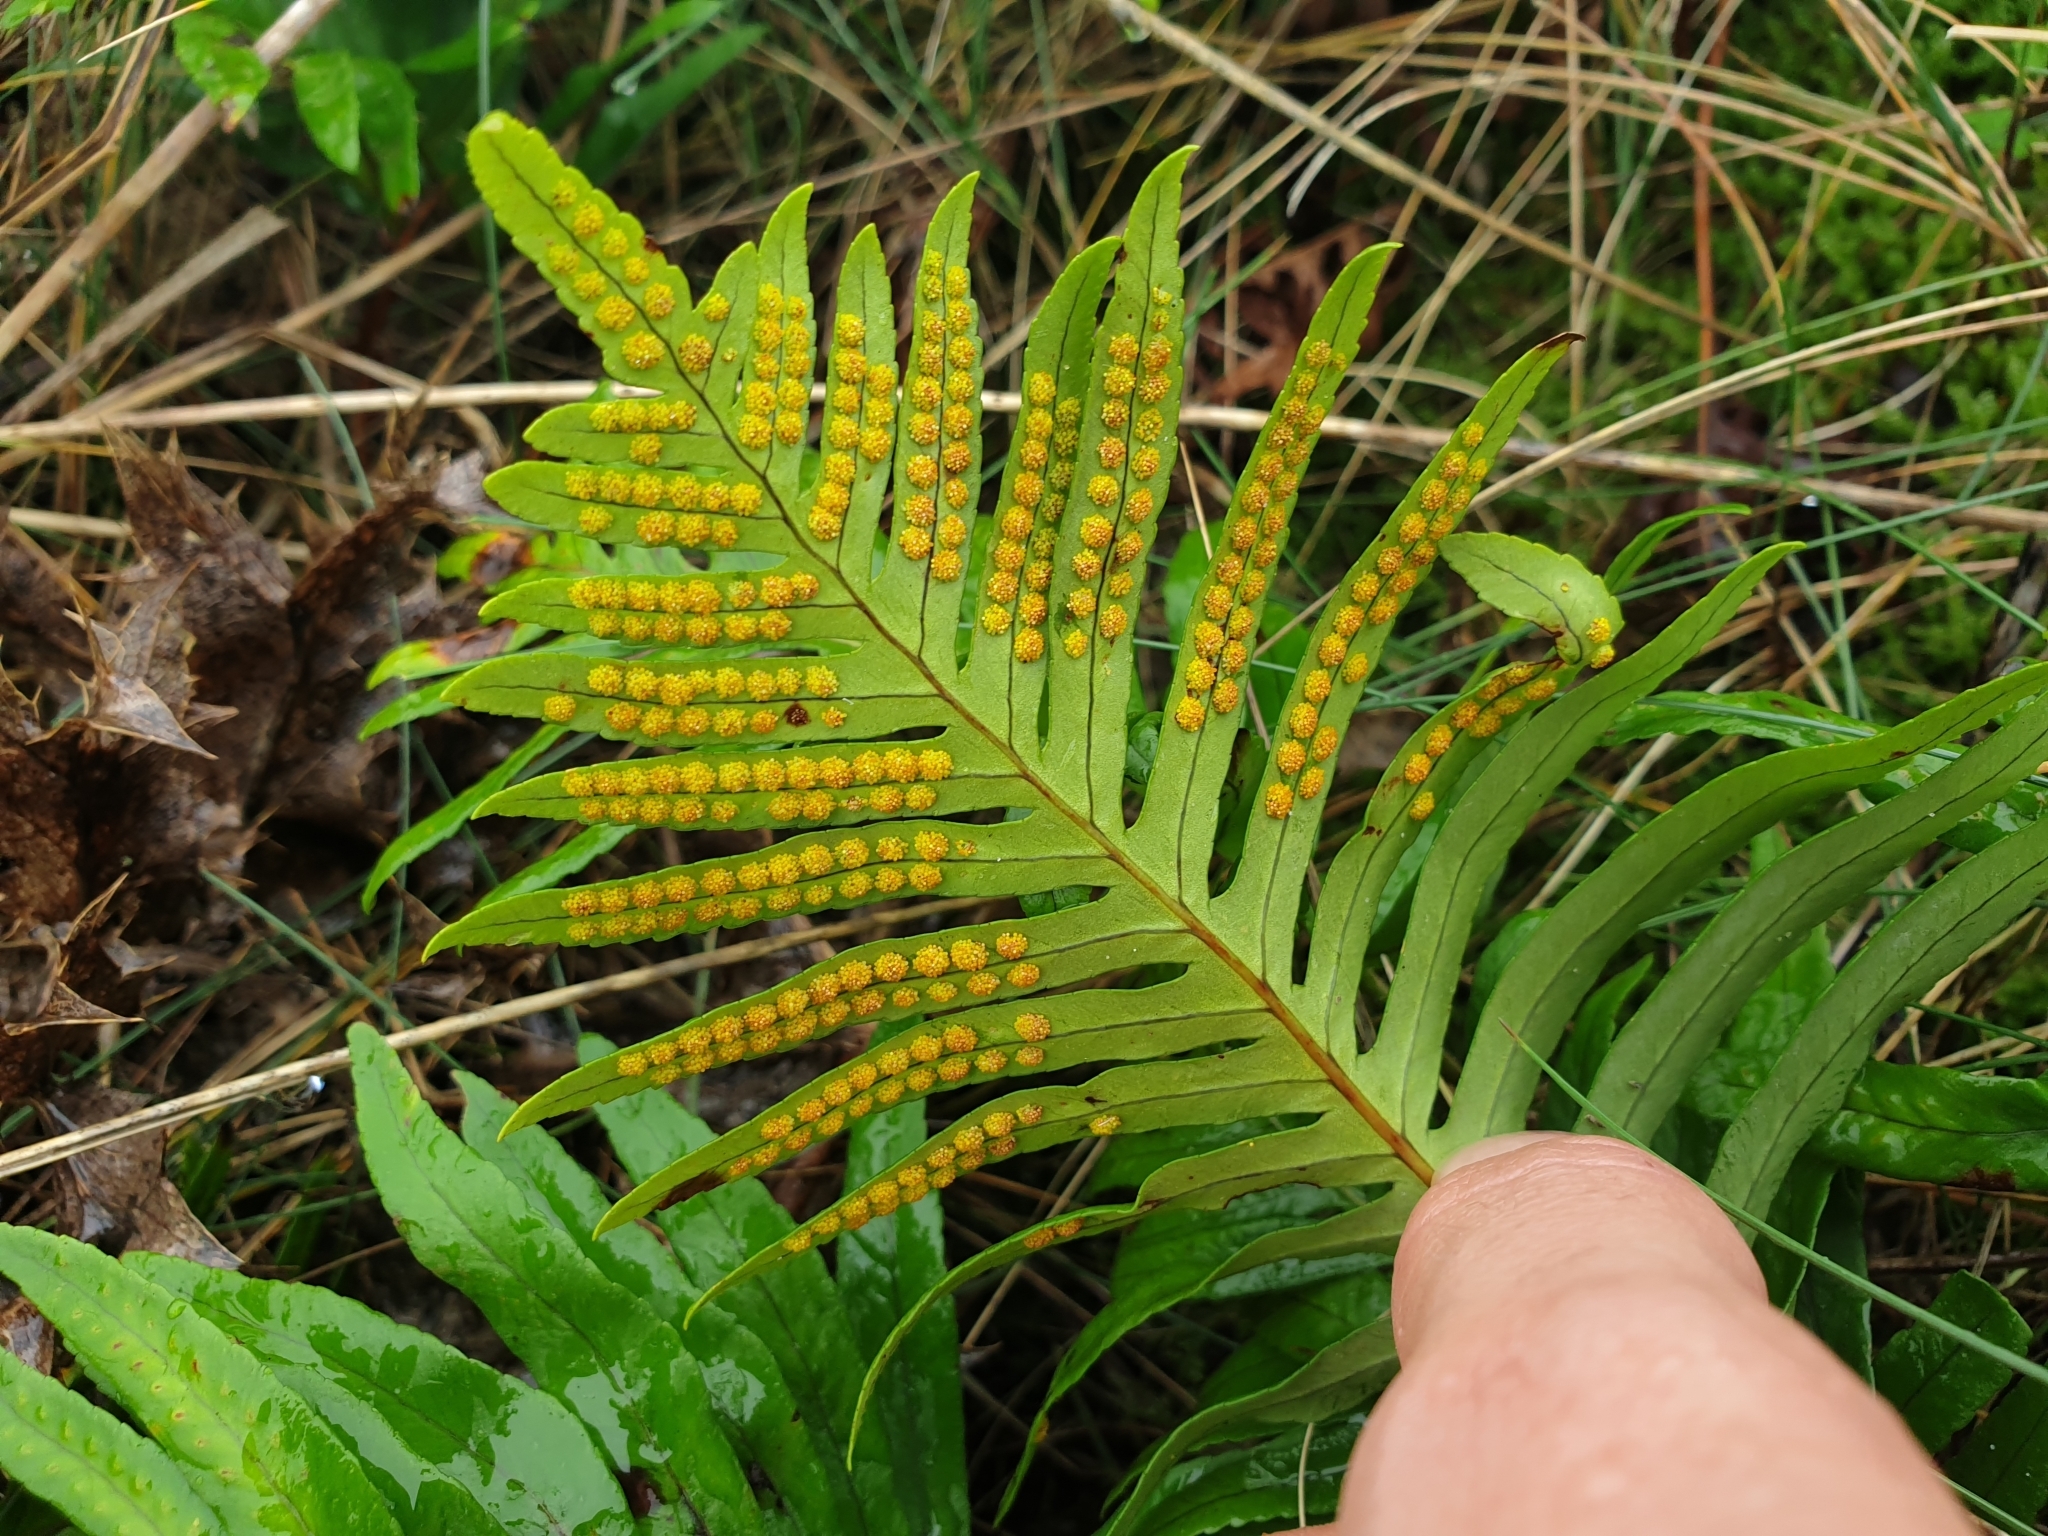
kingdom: Plantae
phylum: Tracheophyta
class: Polypodiopsida
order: Polypodiales
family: Polypodiaceae
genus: Polypodium
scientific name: Polypodium cambricum
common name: Southern polypody
